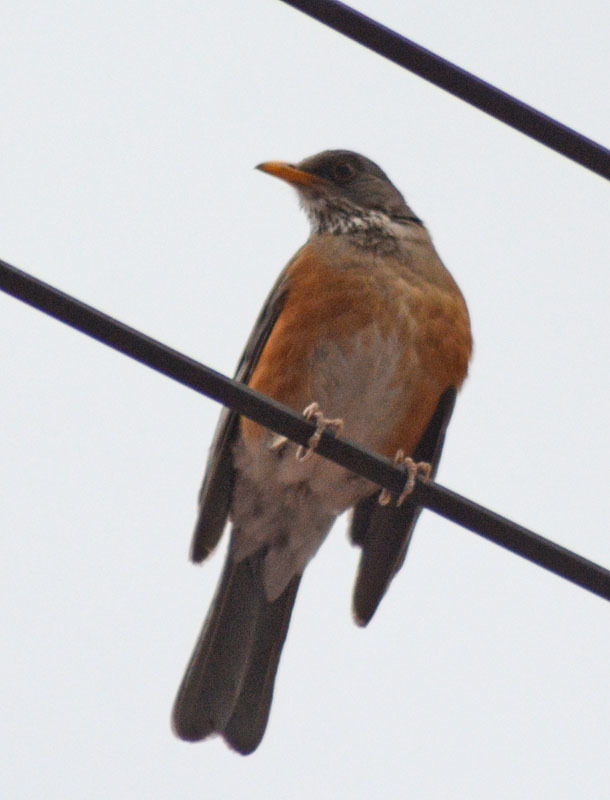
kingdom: Animalia
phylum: Chordata
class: Aves
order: Passeriformes
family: Turdidae
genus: Turdus
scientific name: Turdus rufopalliatus
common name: Rufous-backed robin
